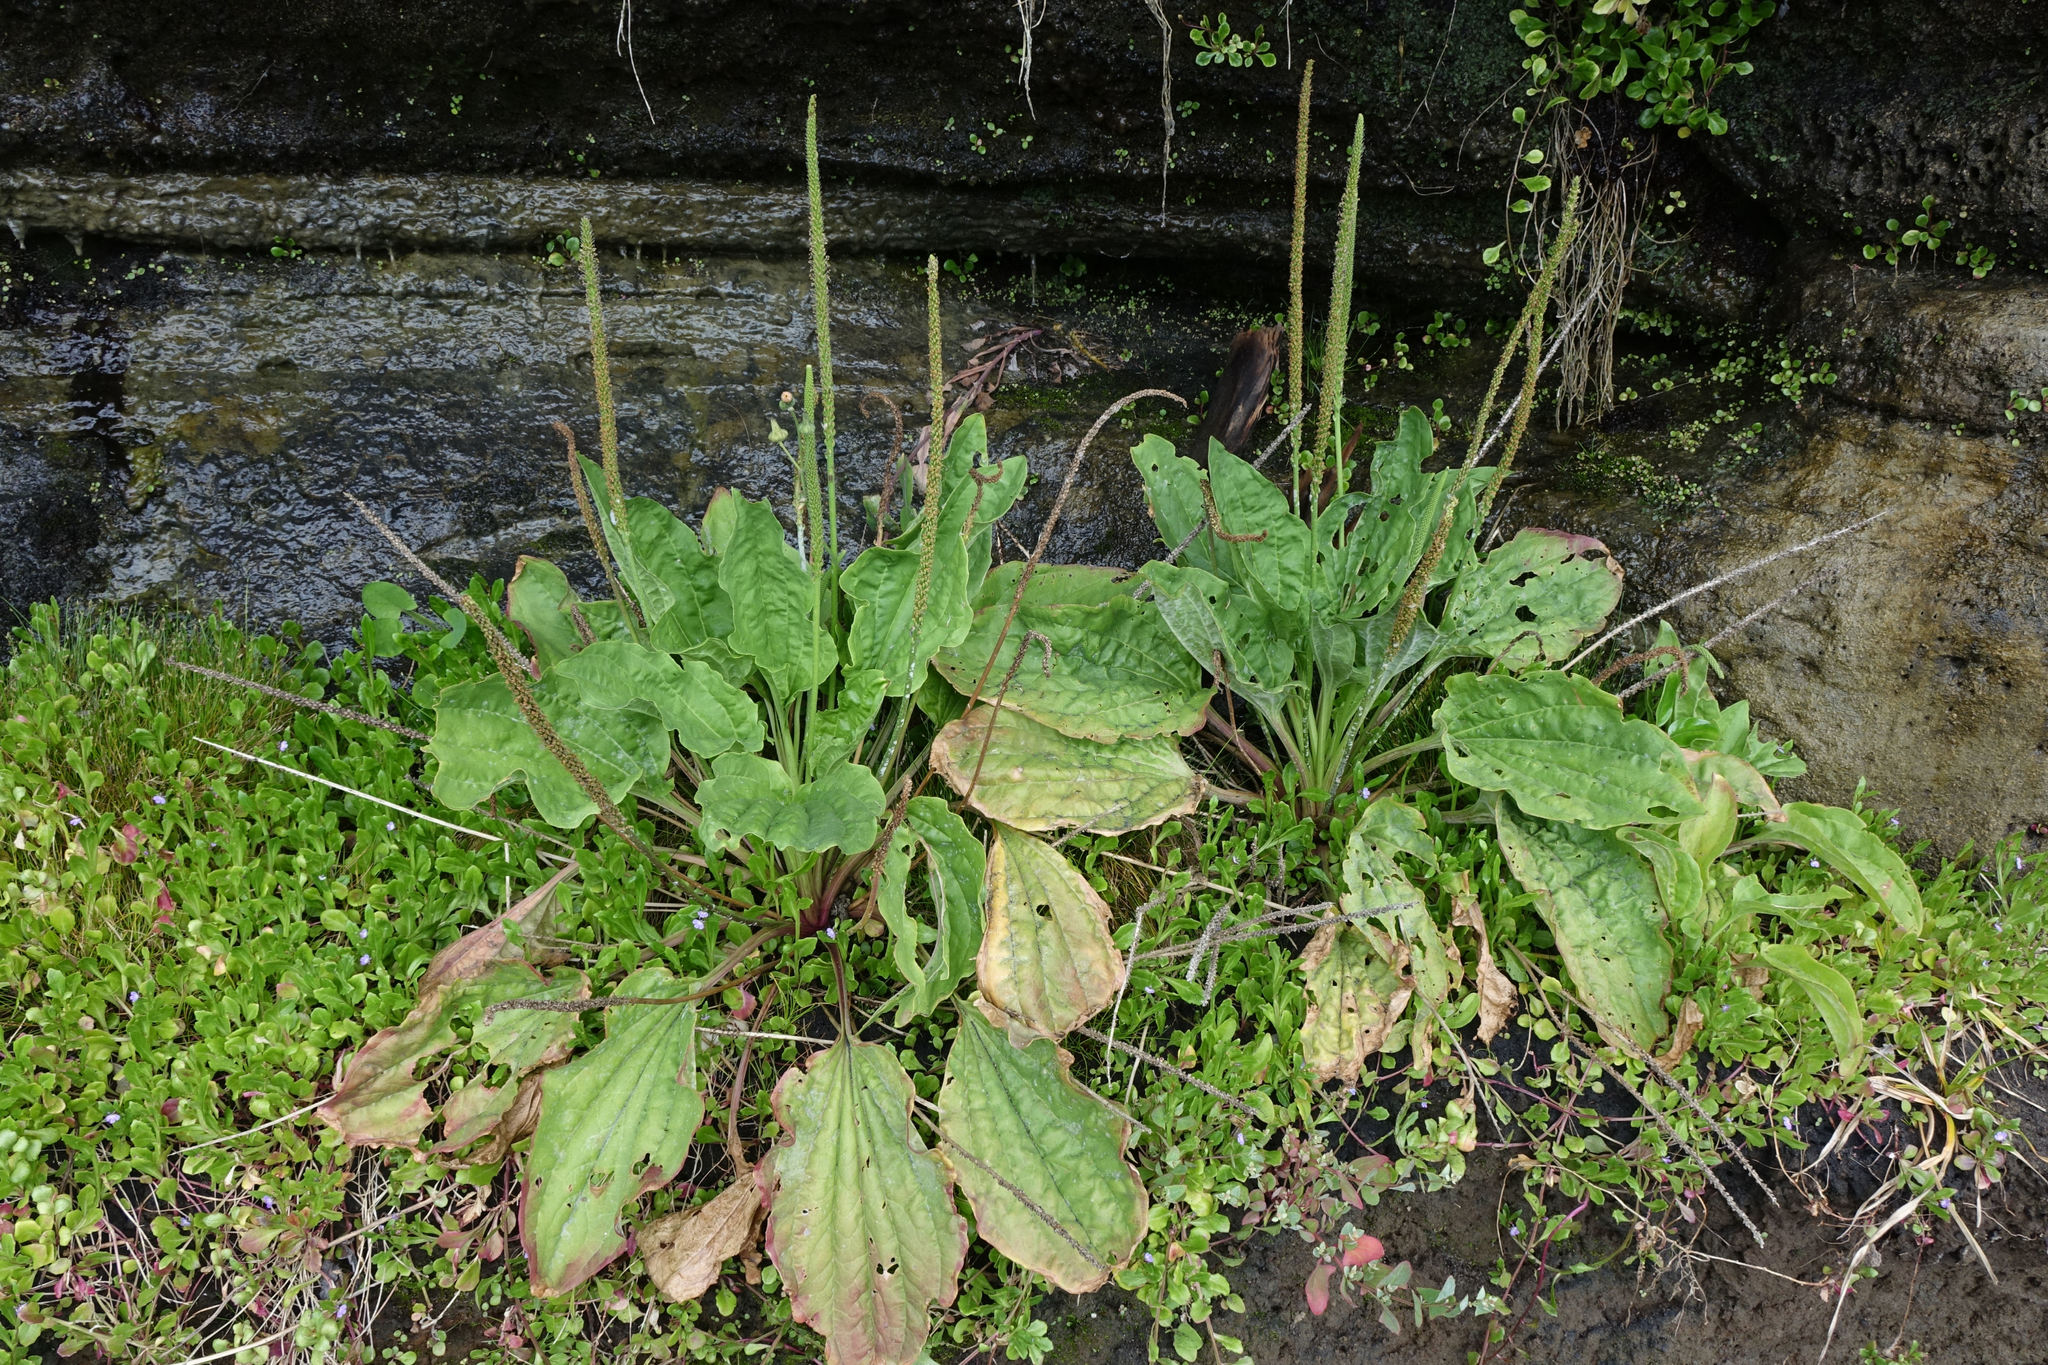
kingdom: Plantae
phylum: Tracheophyta
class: Magnoliopsida
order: Lamiales
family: Plantaginaceae
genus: Plantago
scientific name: Plantago major
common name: Common plantain
